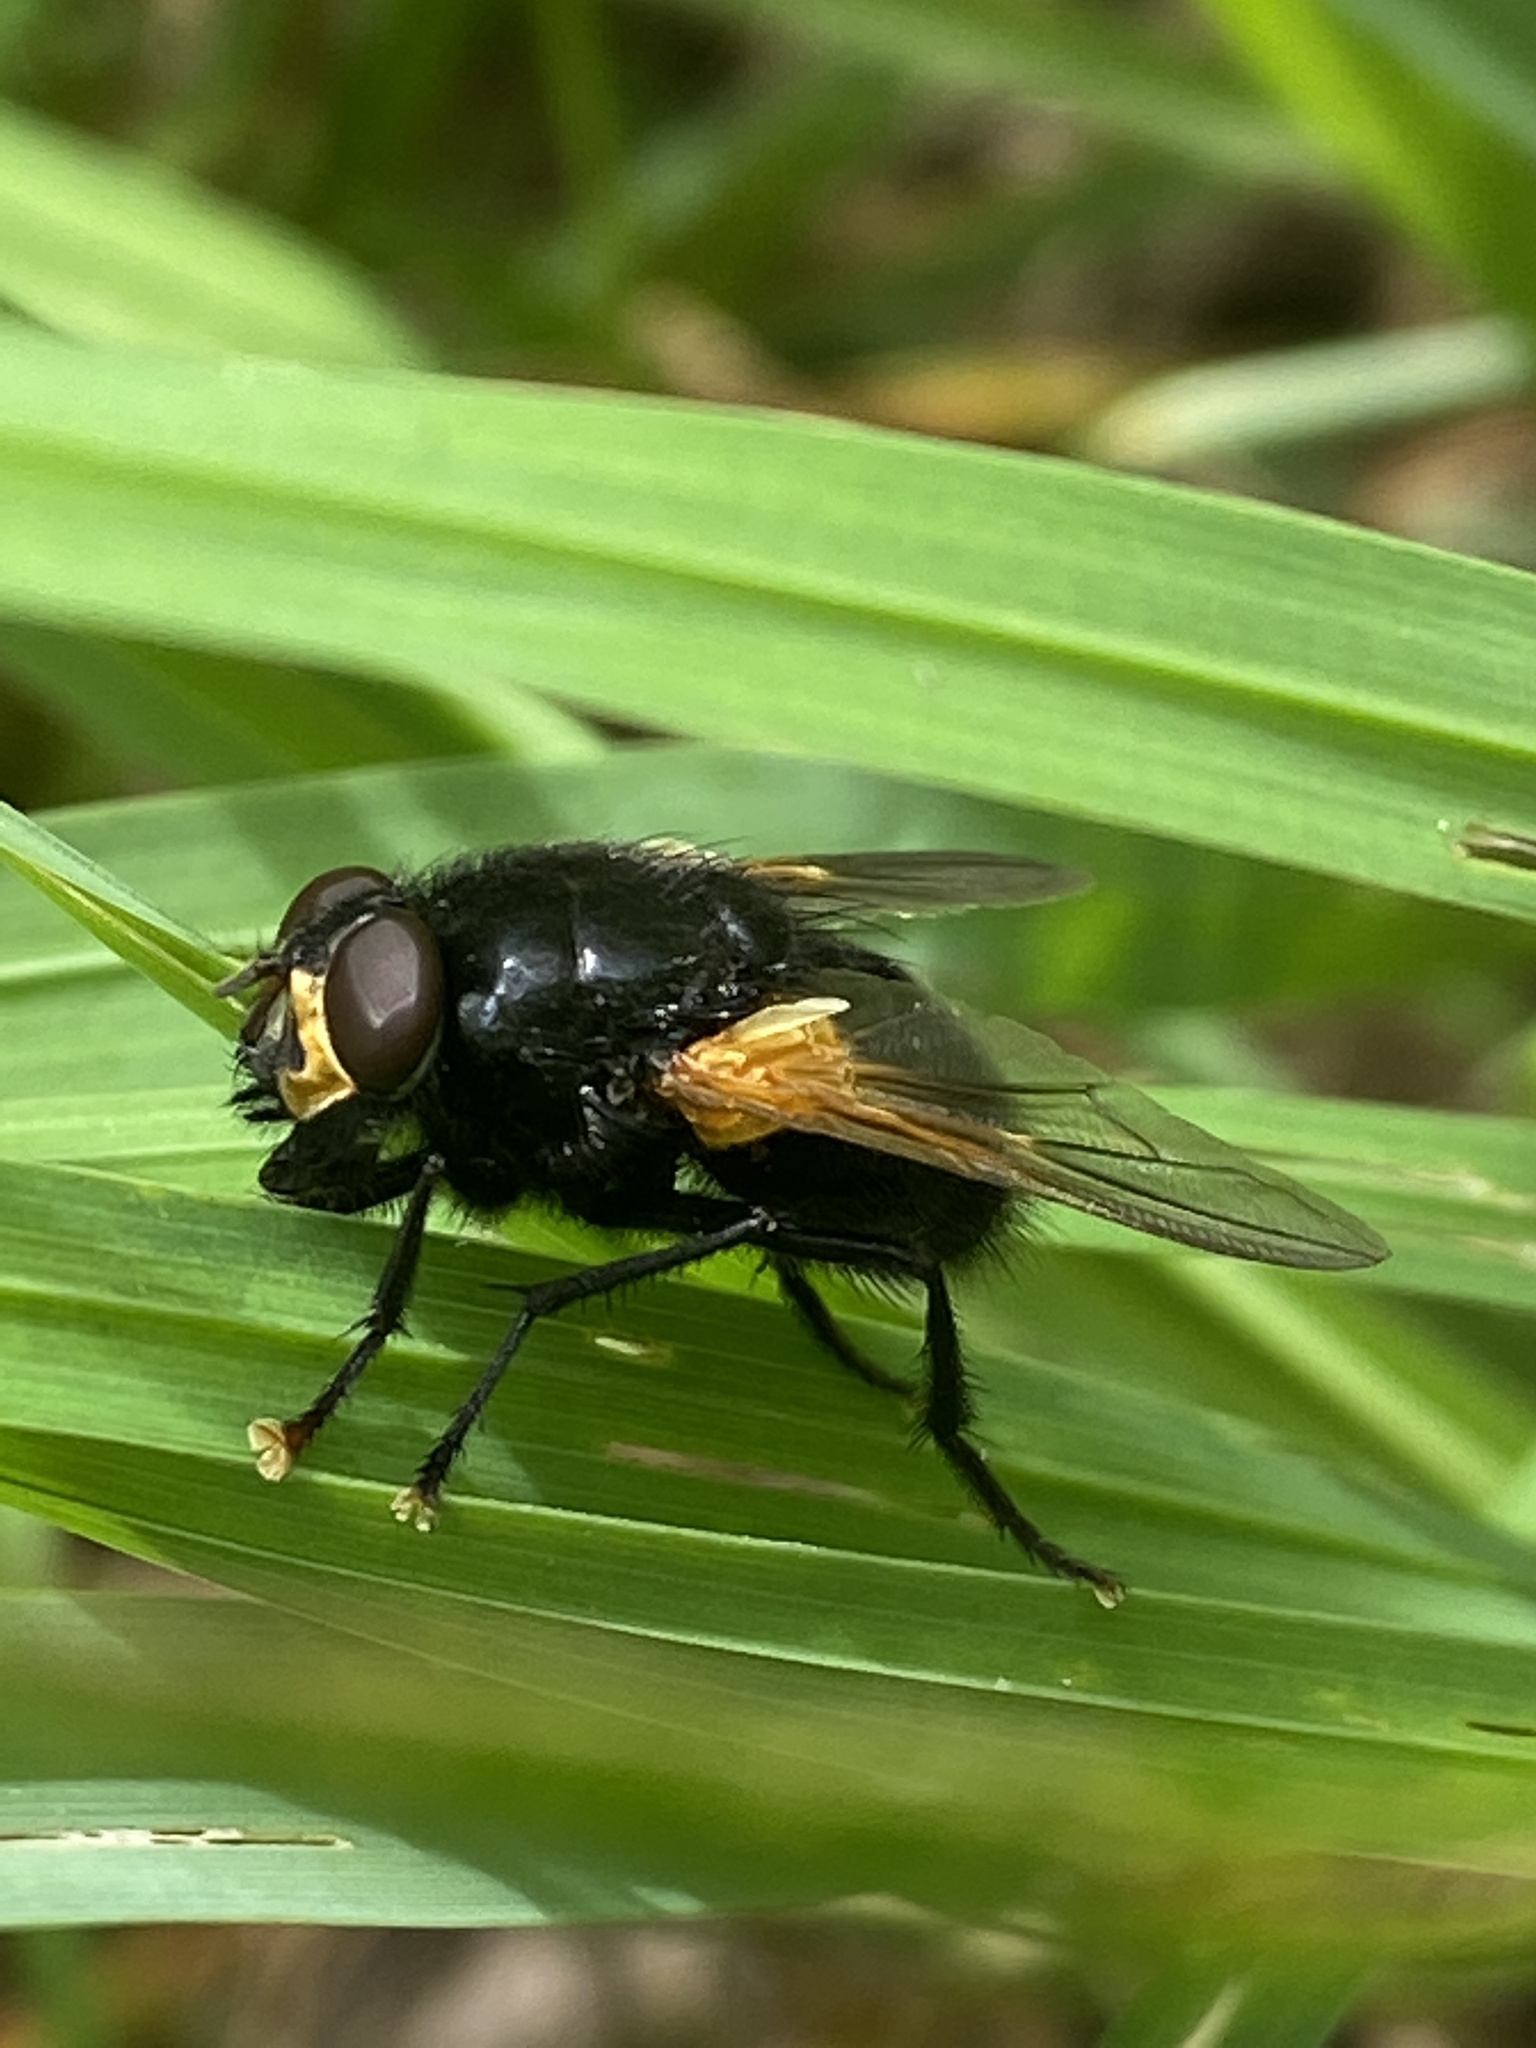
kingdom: Animalia
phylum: Arthropoda
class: Insecta
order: Diptera
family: Muscidae
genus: Mesembrina
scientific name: Mesembrina meridiana
